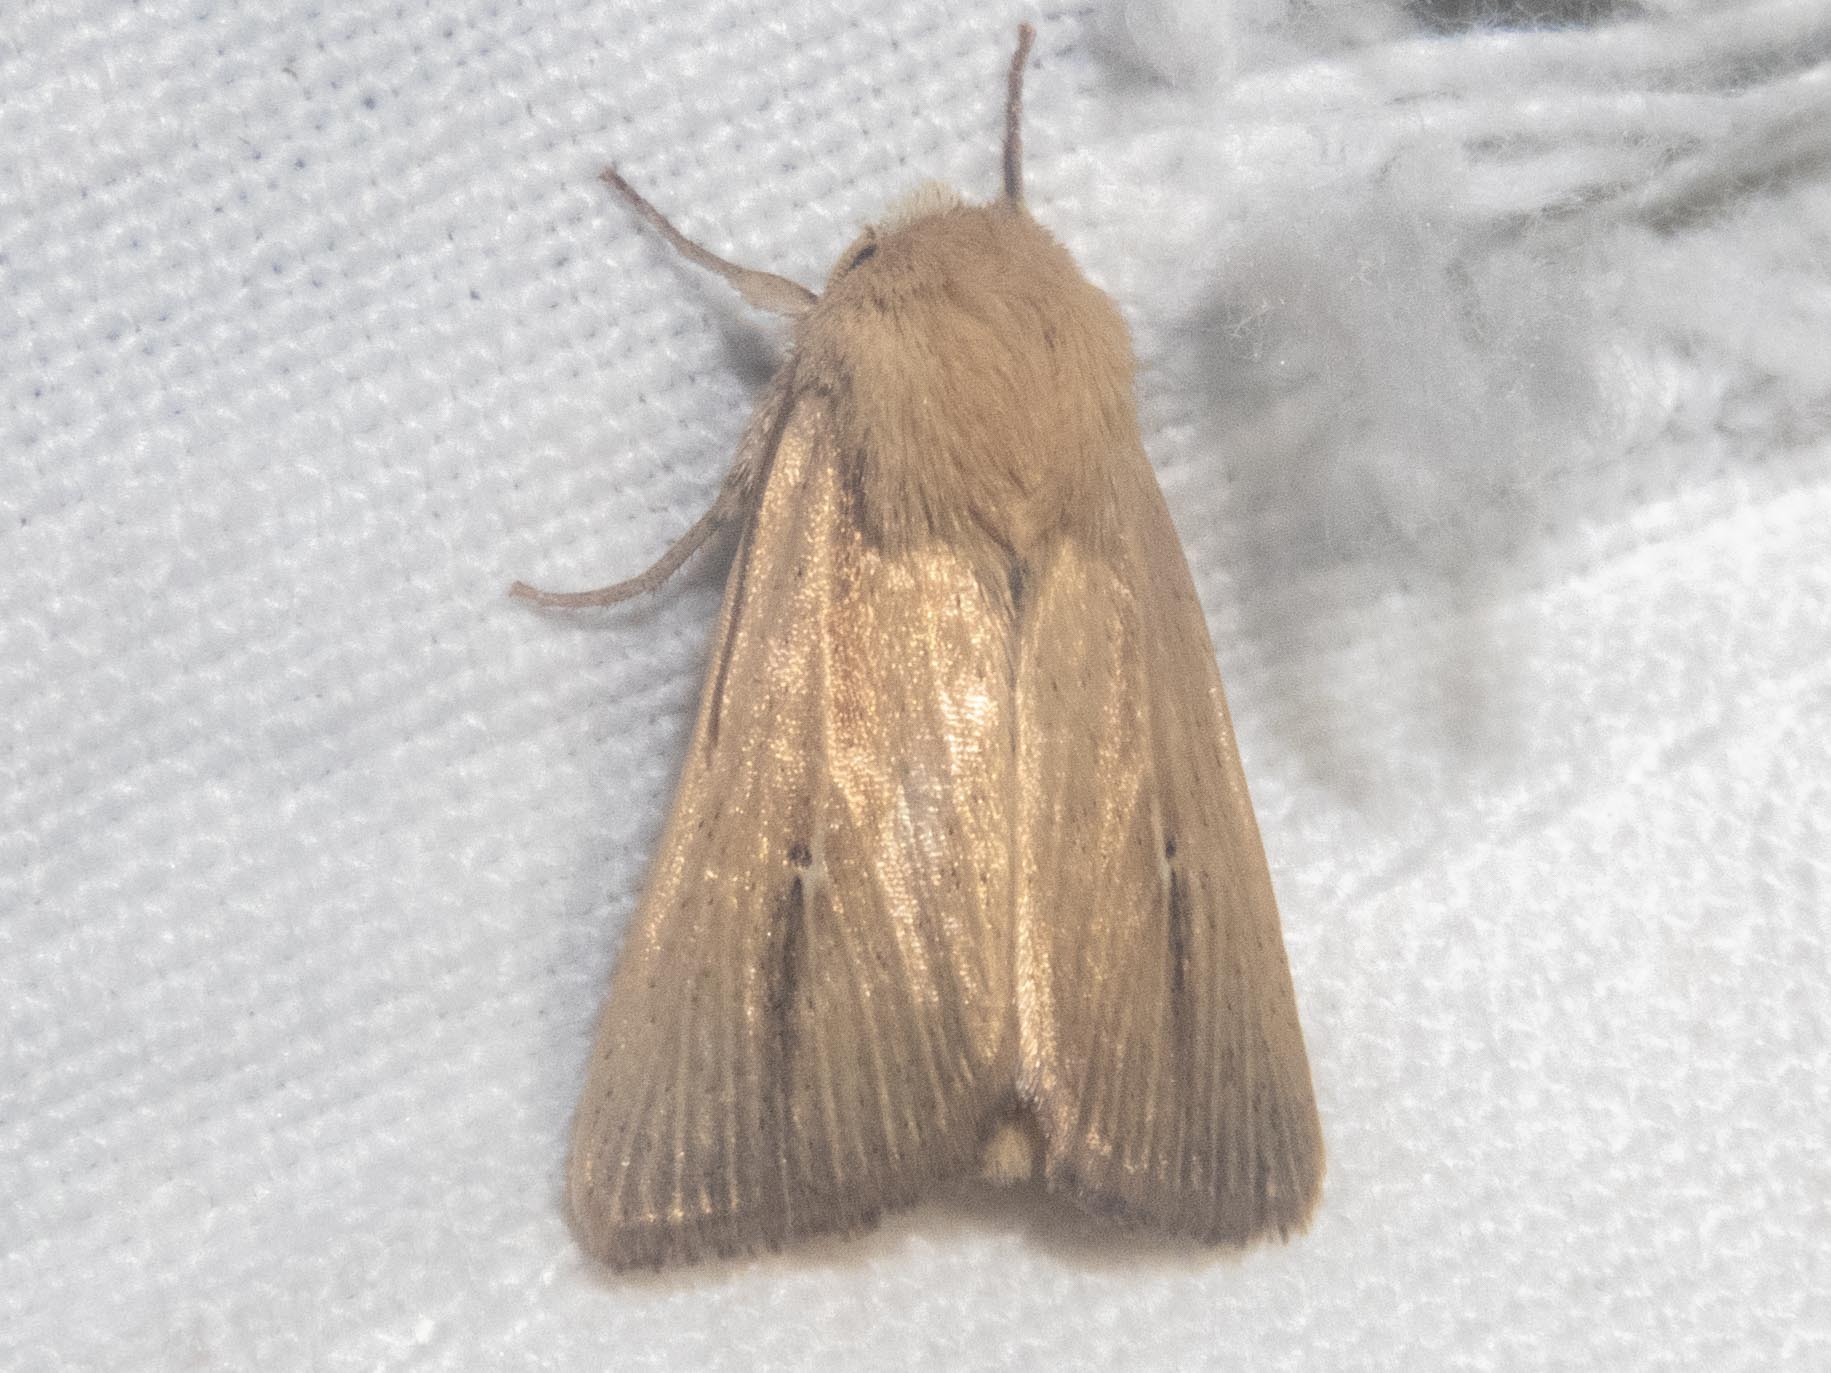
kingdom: Animalia
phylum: Arthropoda
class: Insecta
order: Lepidoptera
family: Noctuidae
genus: Mythimna
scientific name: Mythimna sicula
